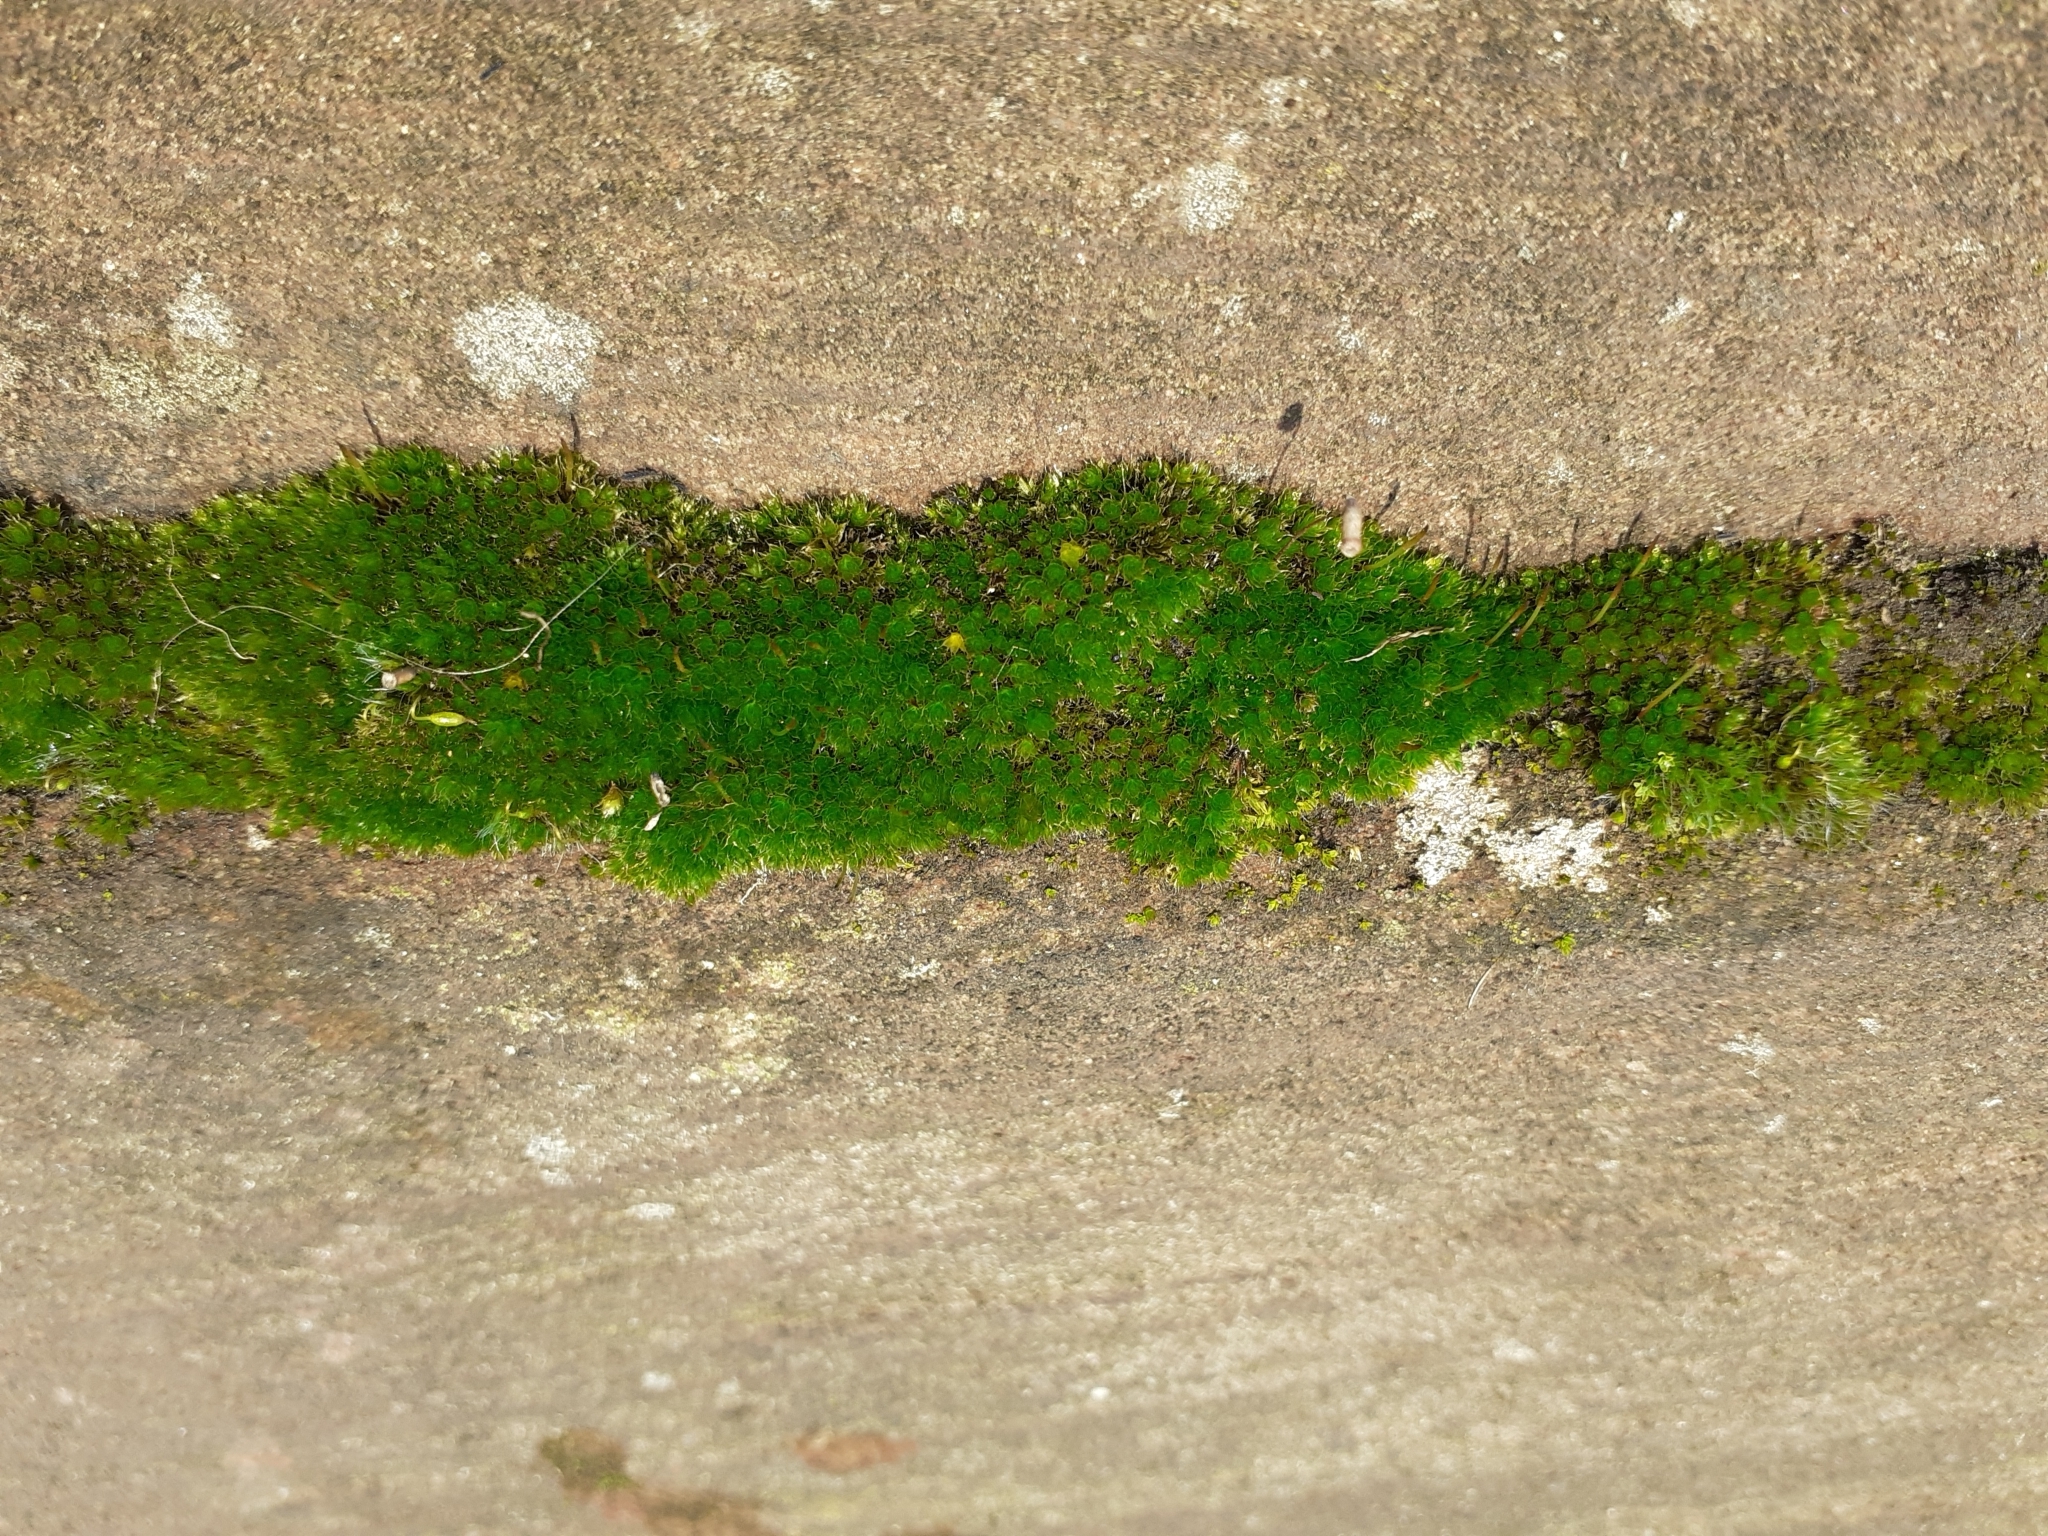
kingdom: Plantae
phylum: Bryophyta
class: Bryopsida
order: Bryales
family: Bryaceae
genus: Rosulabryum
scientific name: Rosulabryum capillare
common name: Capillary thread-moss
